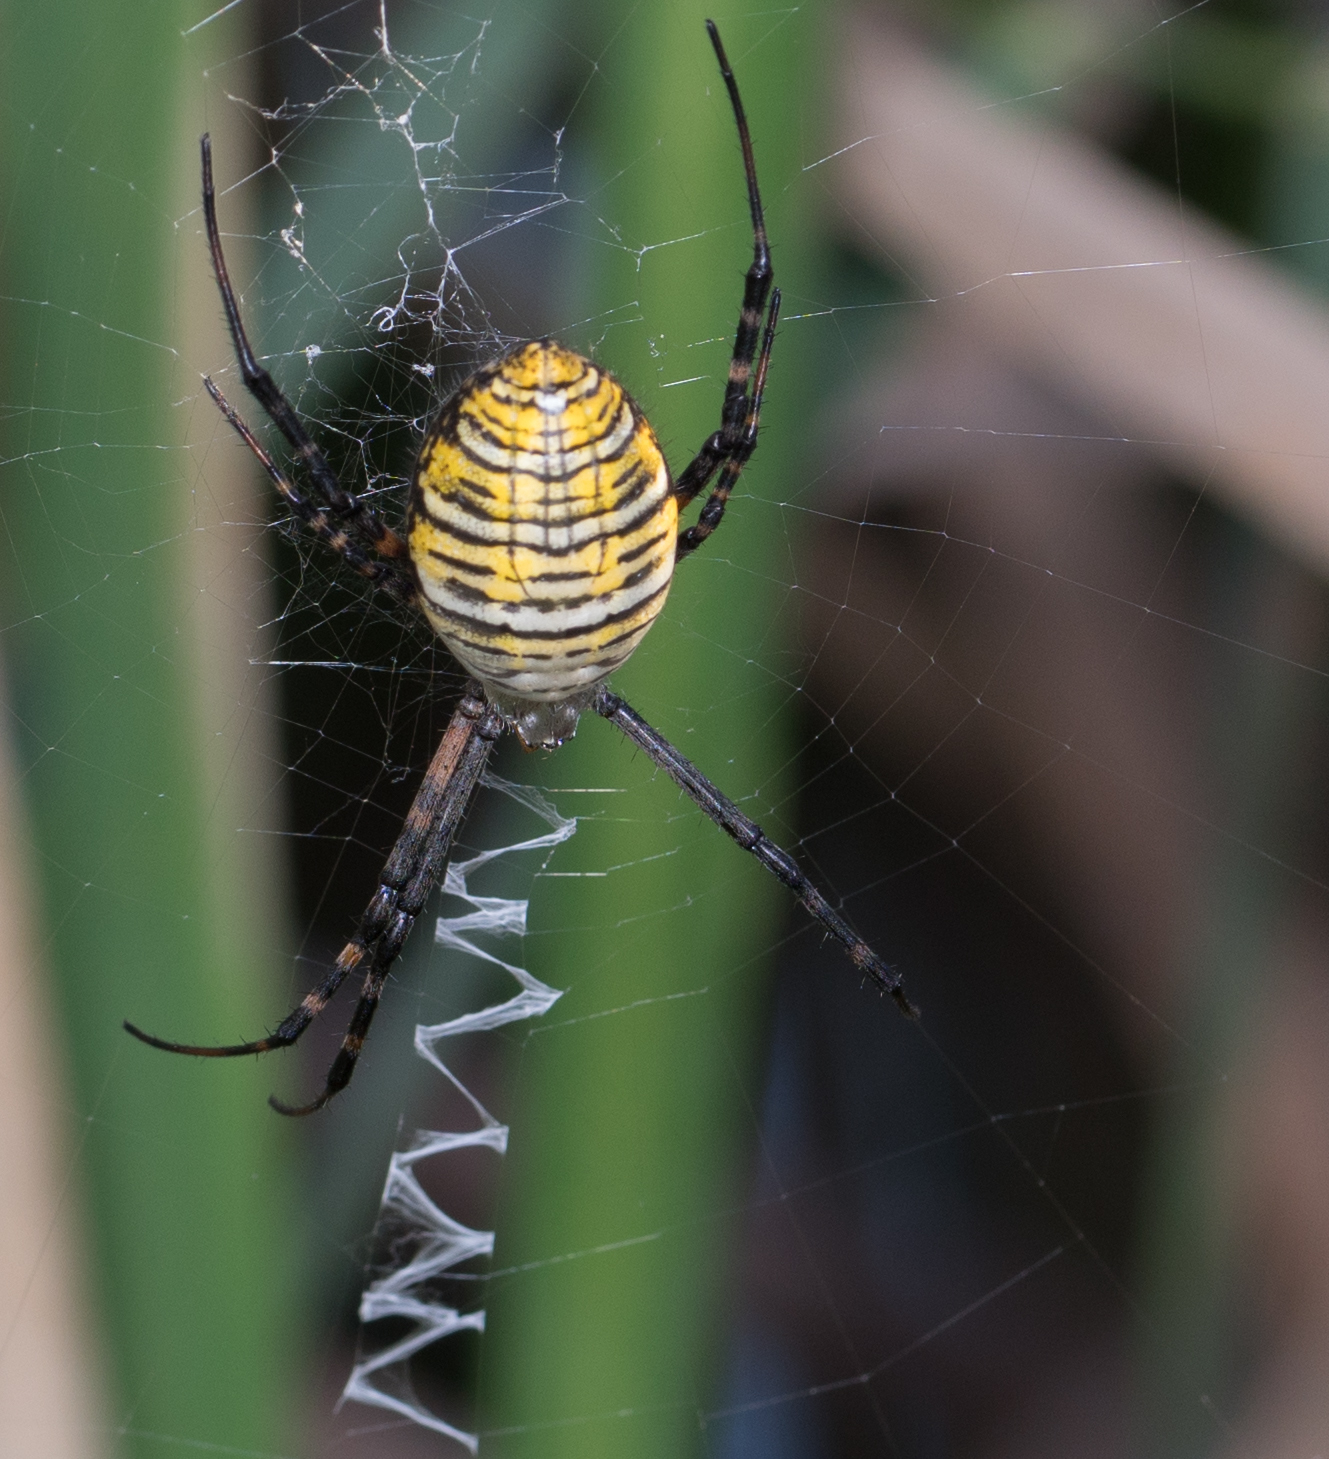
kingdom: Animalia
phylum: Arthropoda
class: Arachnida
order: Araneae
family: Araneidae
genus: Argiope
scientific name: Argiope trifasciata
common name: Banded garden spider
